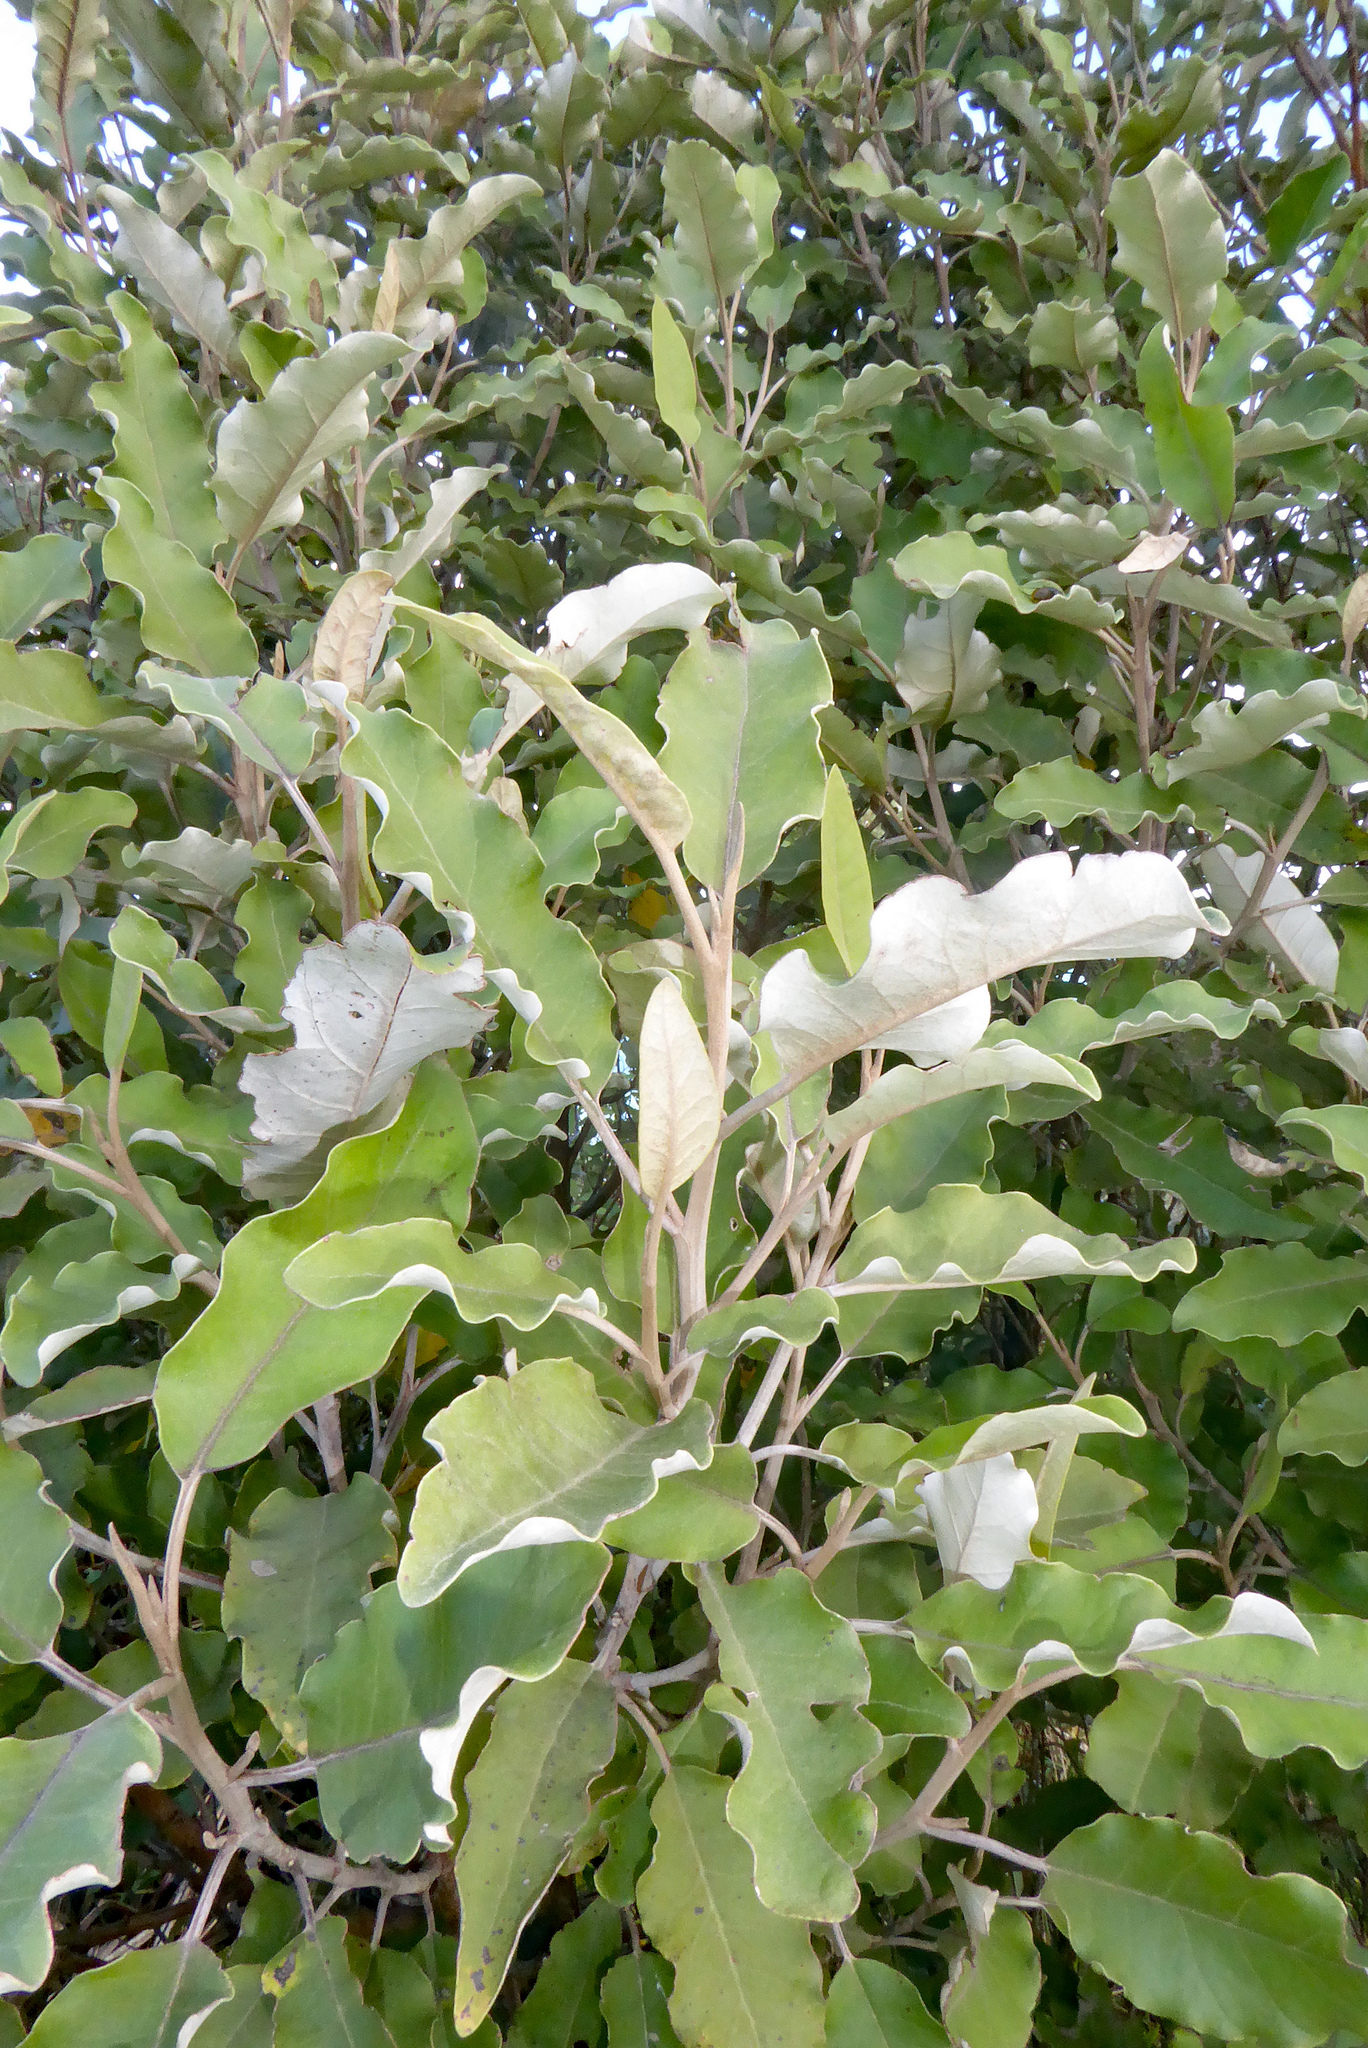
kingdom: Plantae
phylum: Tracheophyta
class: Magnoliopsida
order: Asterales
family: Asteraceae
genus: Olearia
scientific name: Olearia albida
